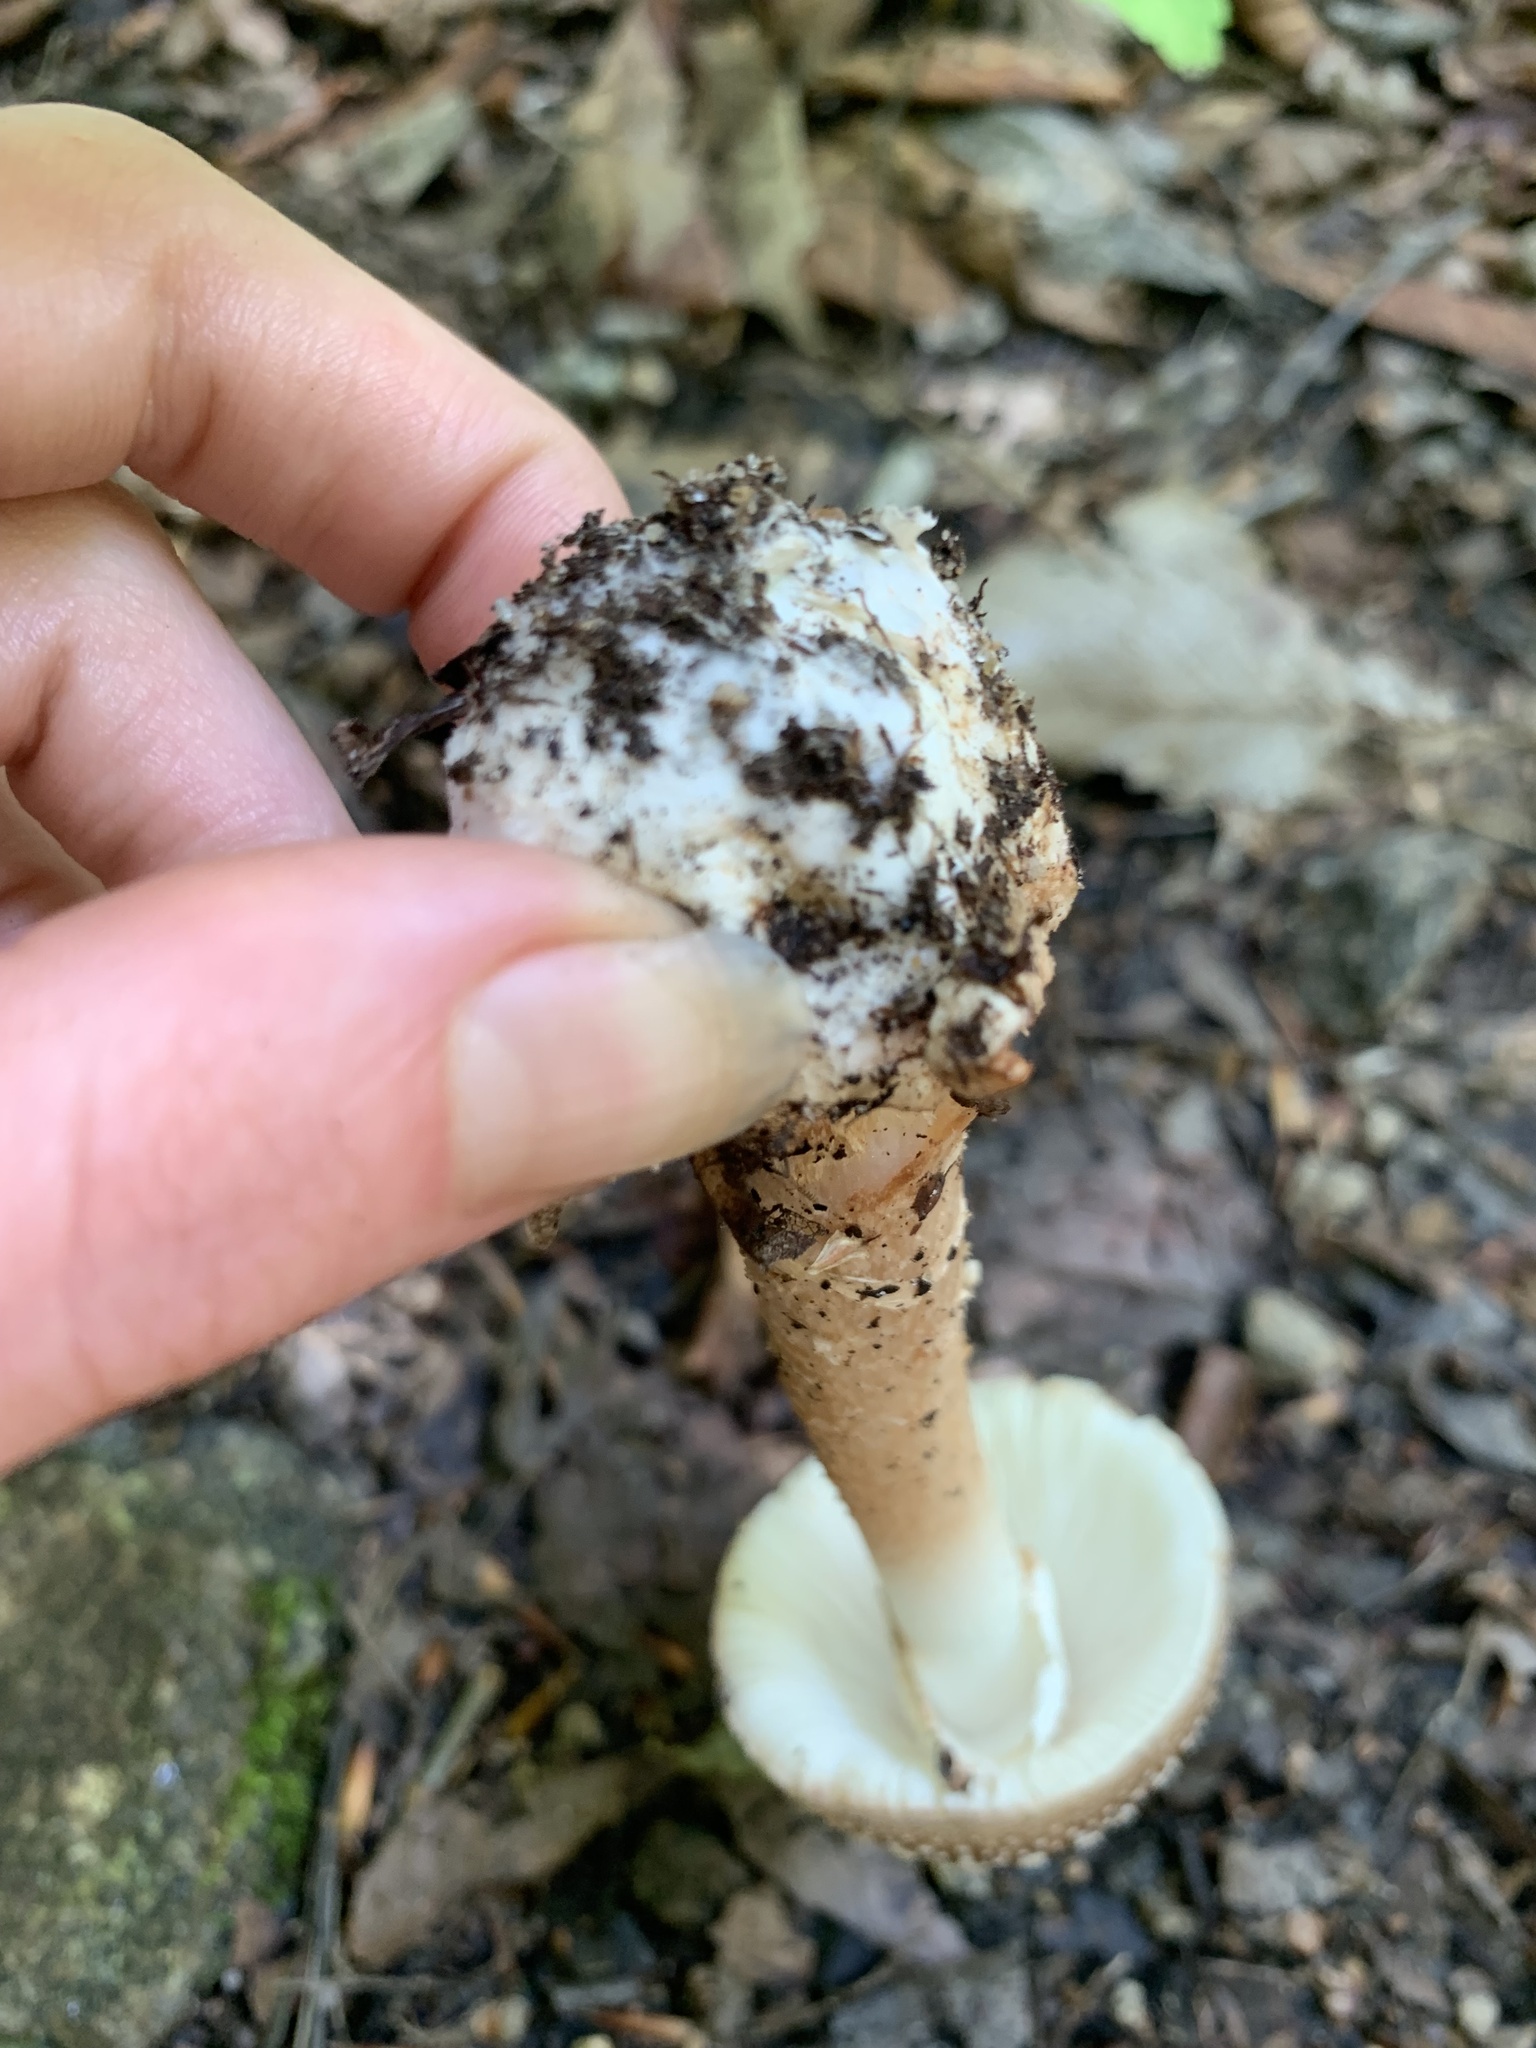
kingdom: Fungi
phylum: Basidiomycota
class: Agaricomycetes
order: Agaricales
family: Amanitaceae
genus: Amanita
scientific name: Amanita brunnescens
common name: Brown american star-footed amanita
